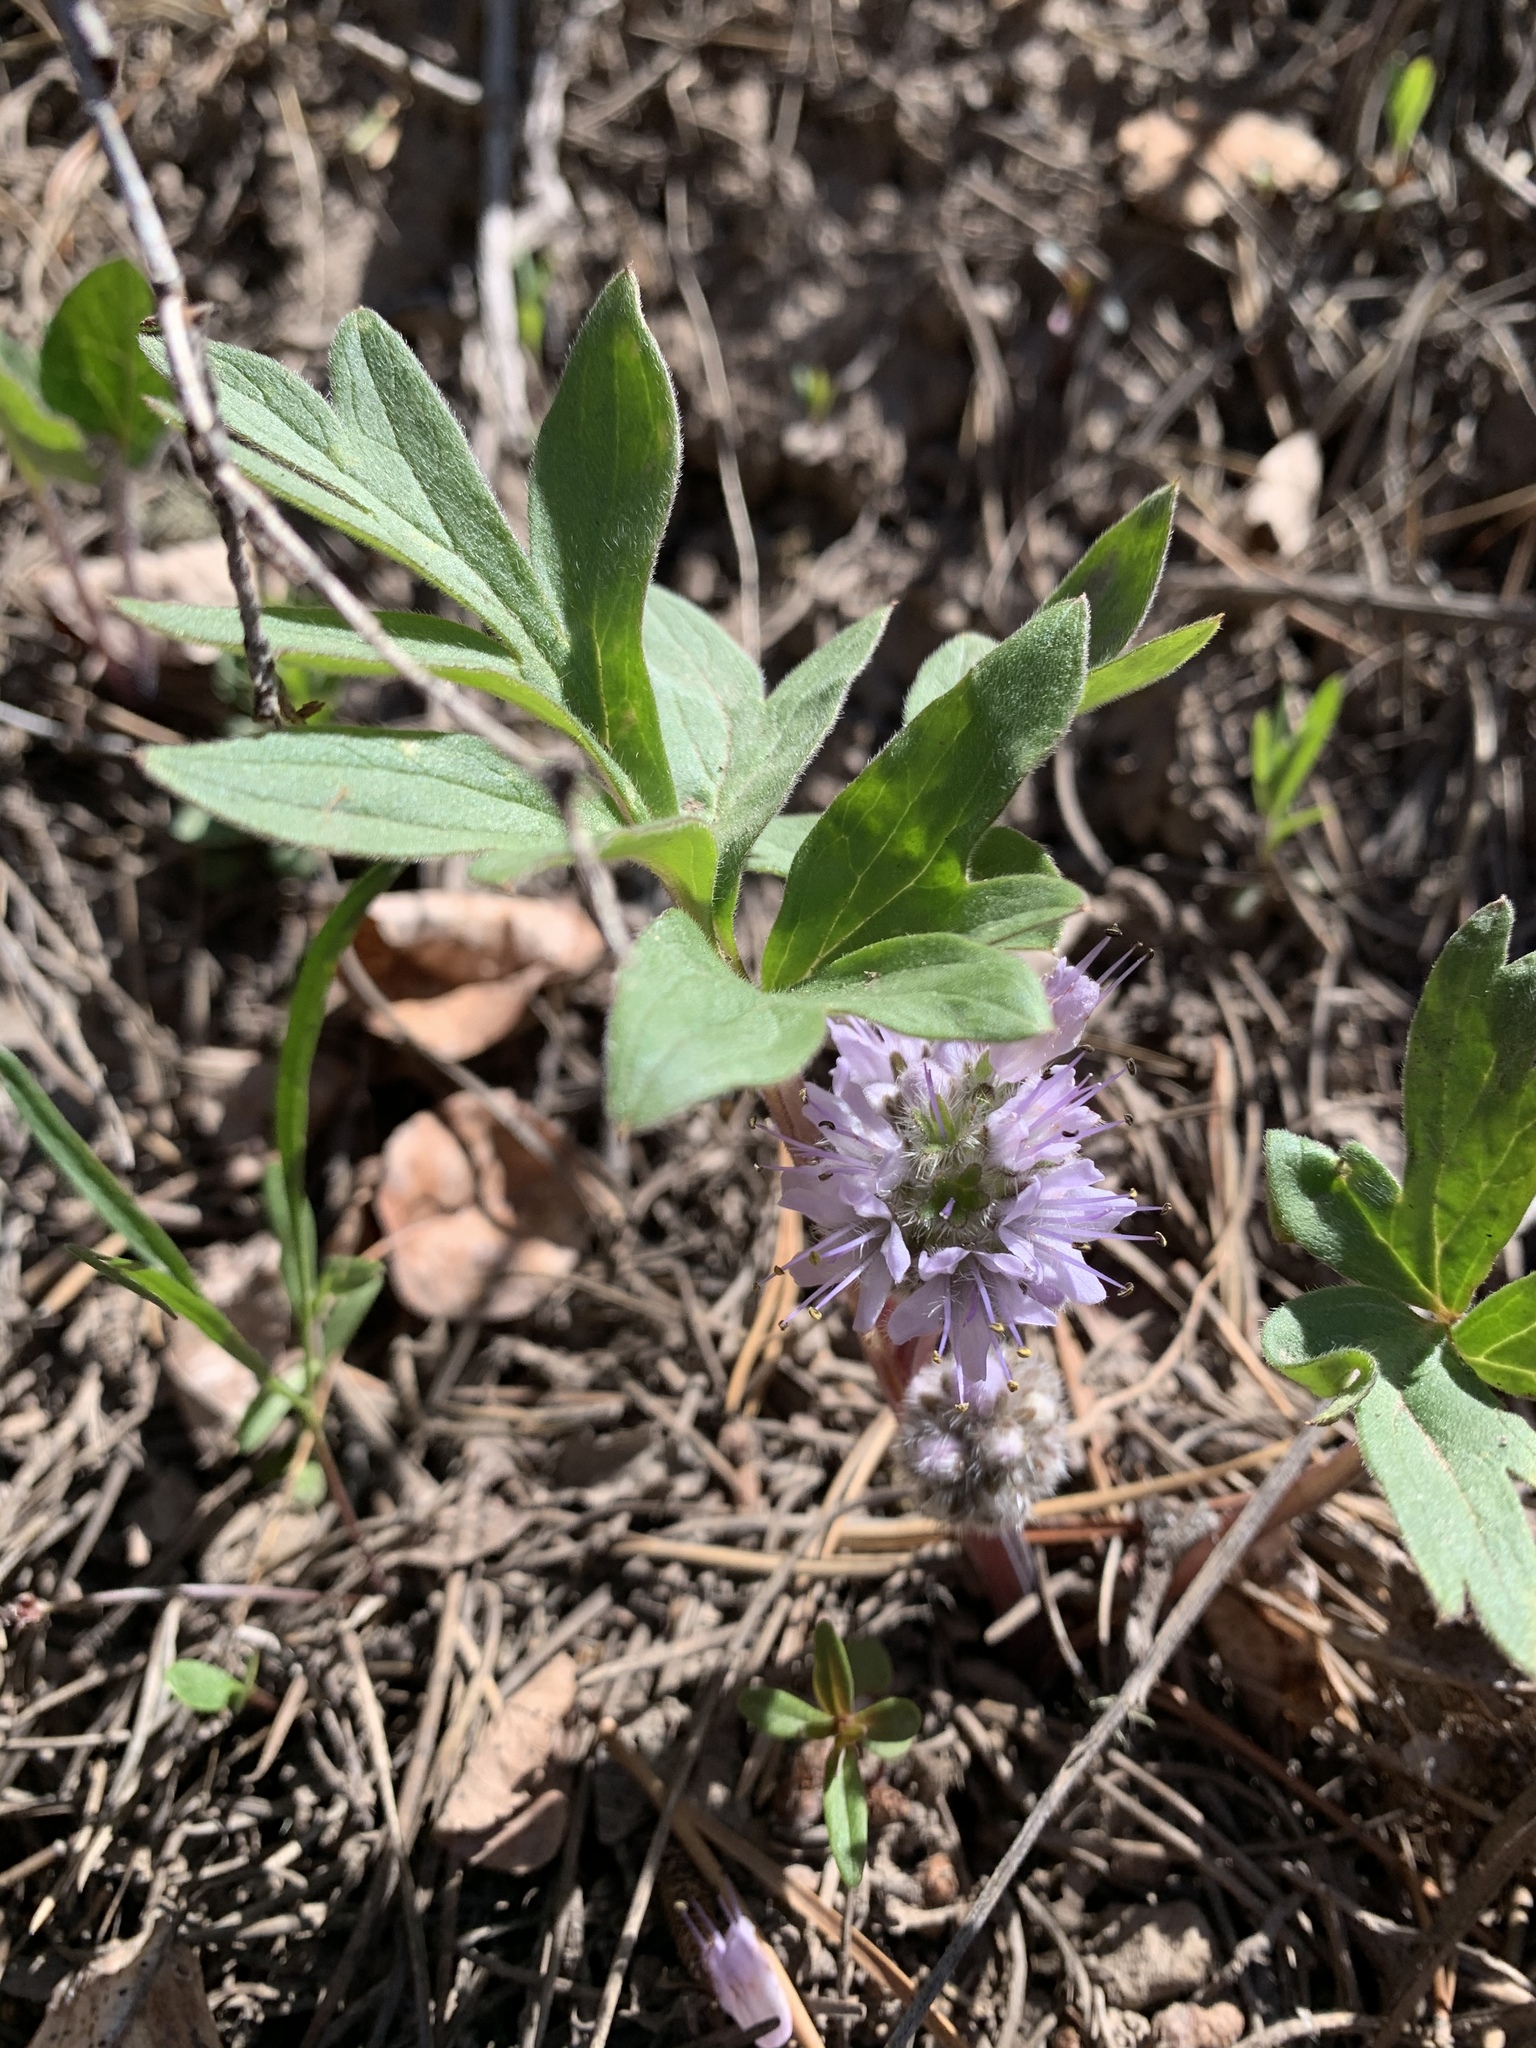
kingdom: Plantae
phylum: Tracheophyta
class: Magnoliopsida
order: Boraginales
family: Hydrophyllaceae
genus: Hydrophyllum
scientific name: Hydrophyllum capitatum
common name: Woollen-breeches
